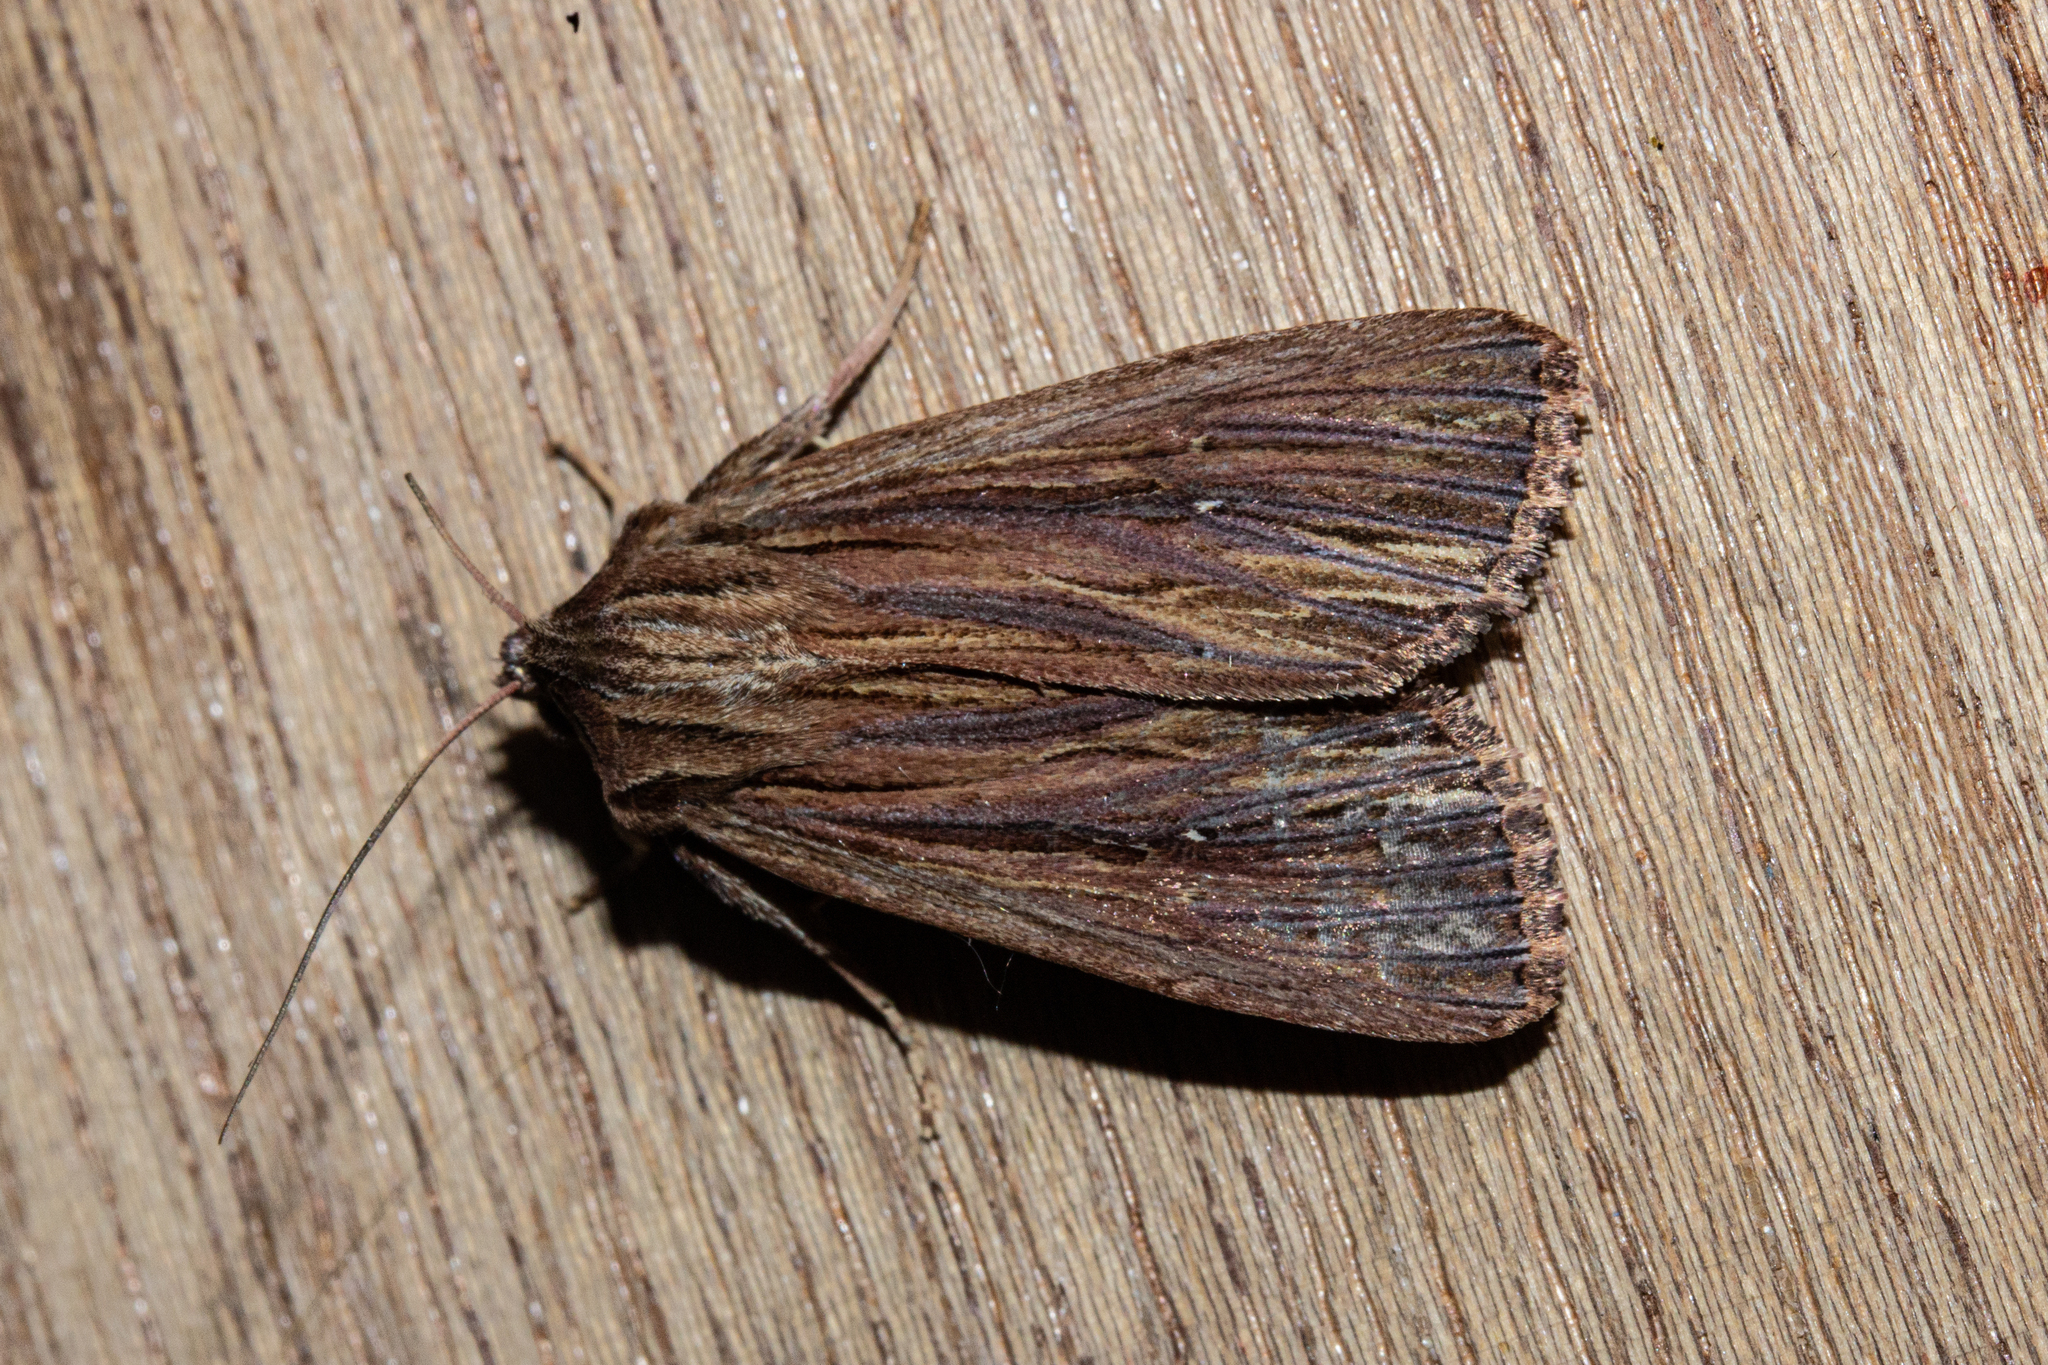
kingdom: Animalia
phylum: Arthropoda
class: Insecta
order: Lepidoptera
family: Noctuidae
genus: Ichneutica
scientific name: Ichneutica
